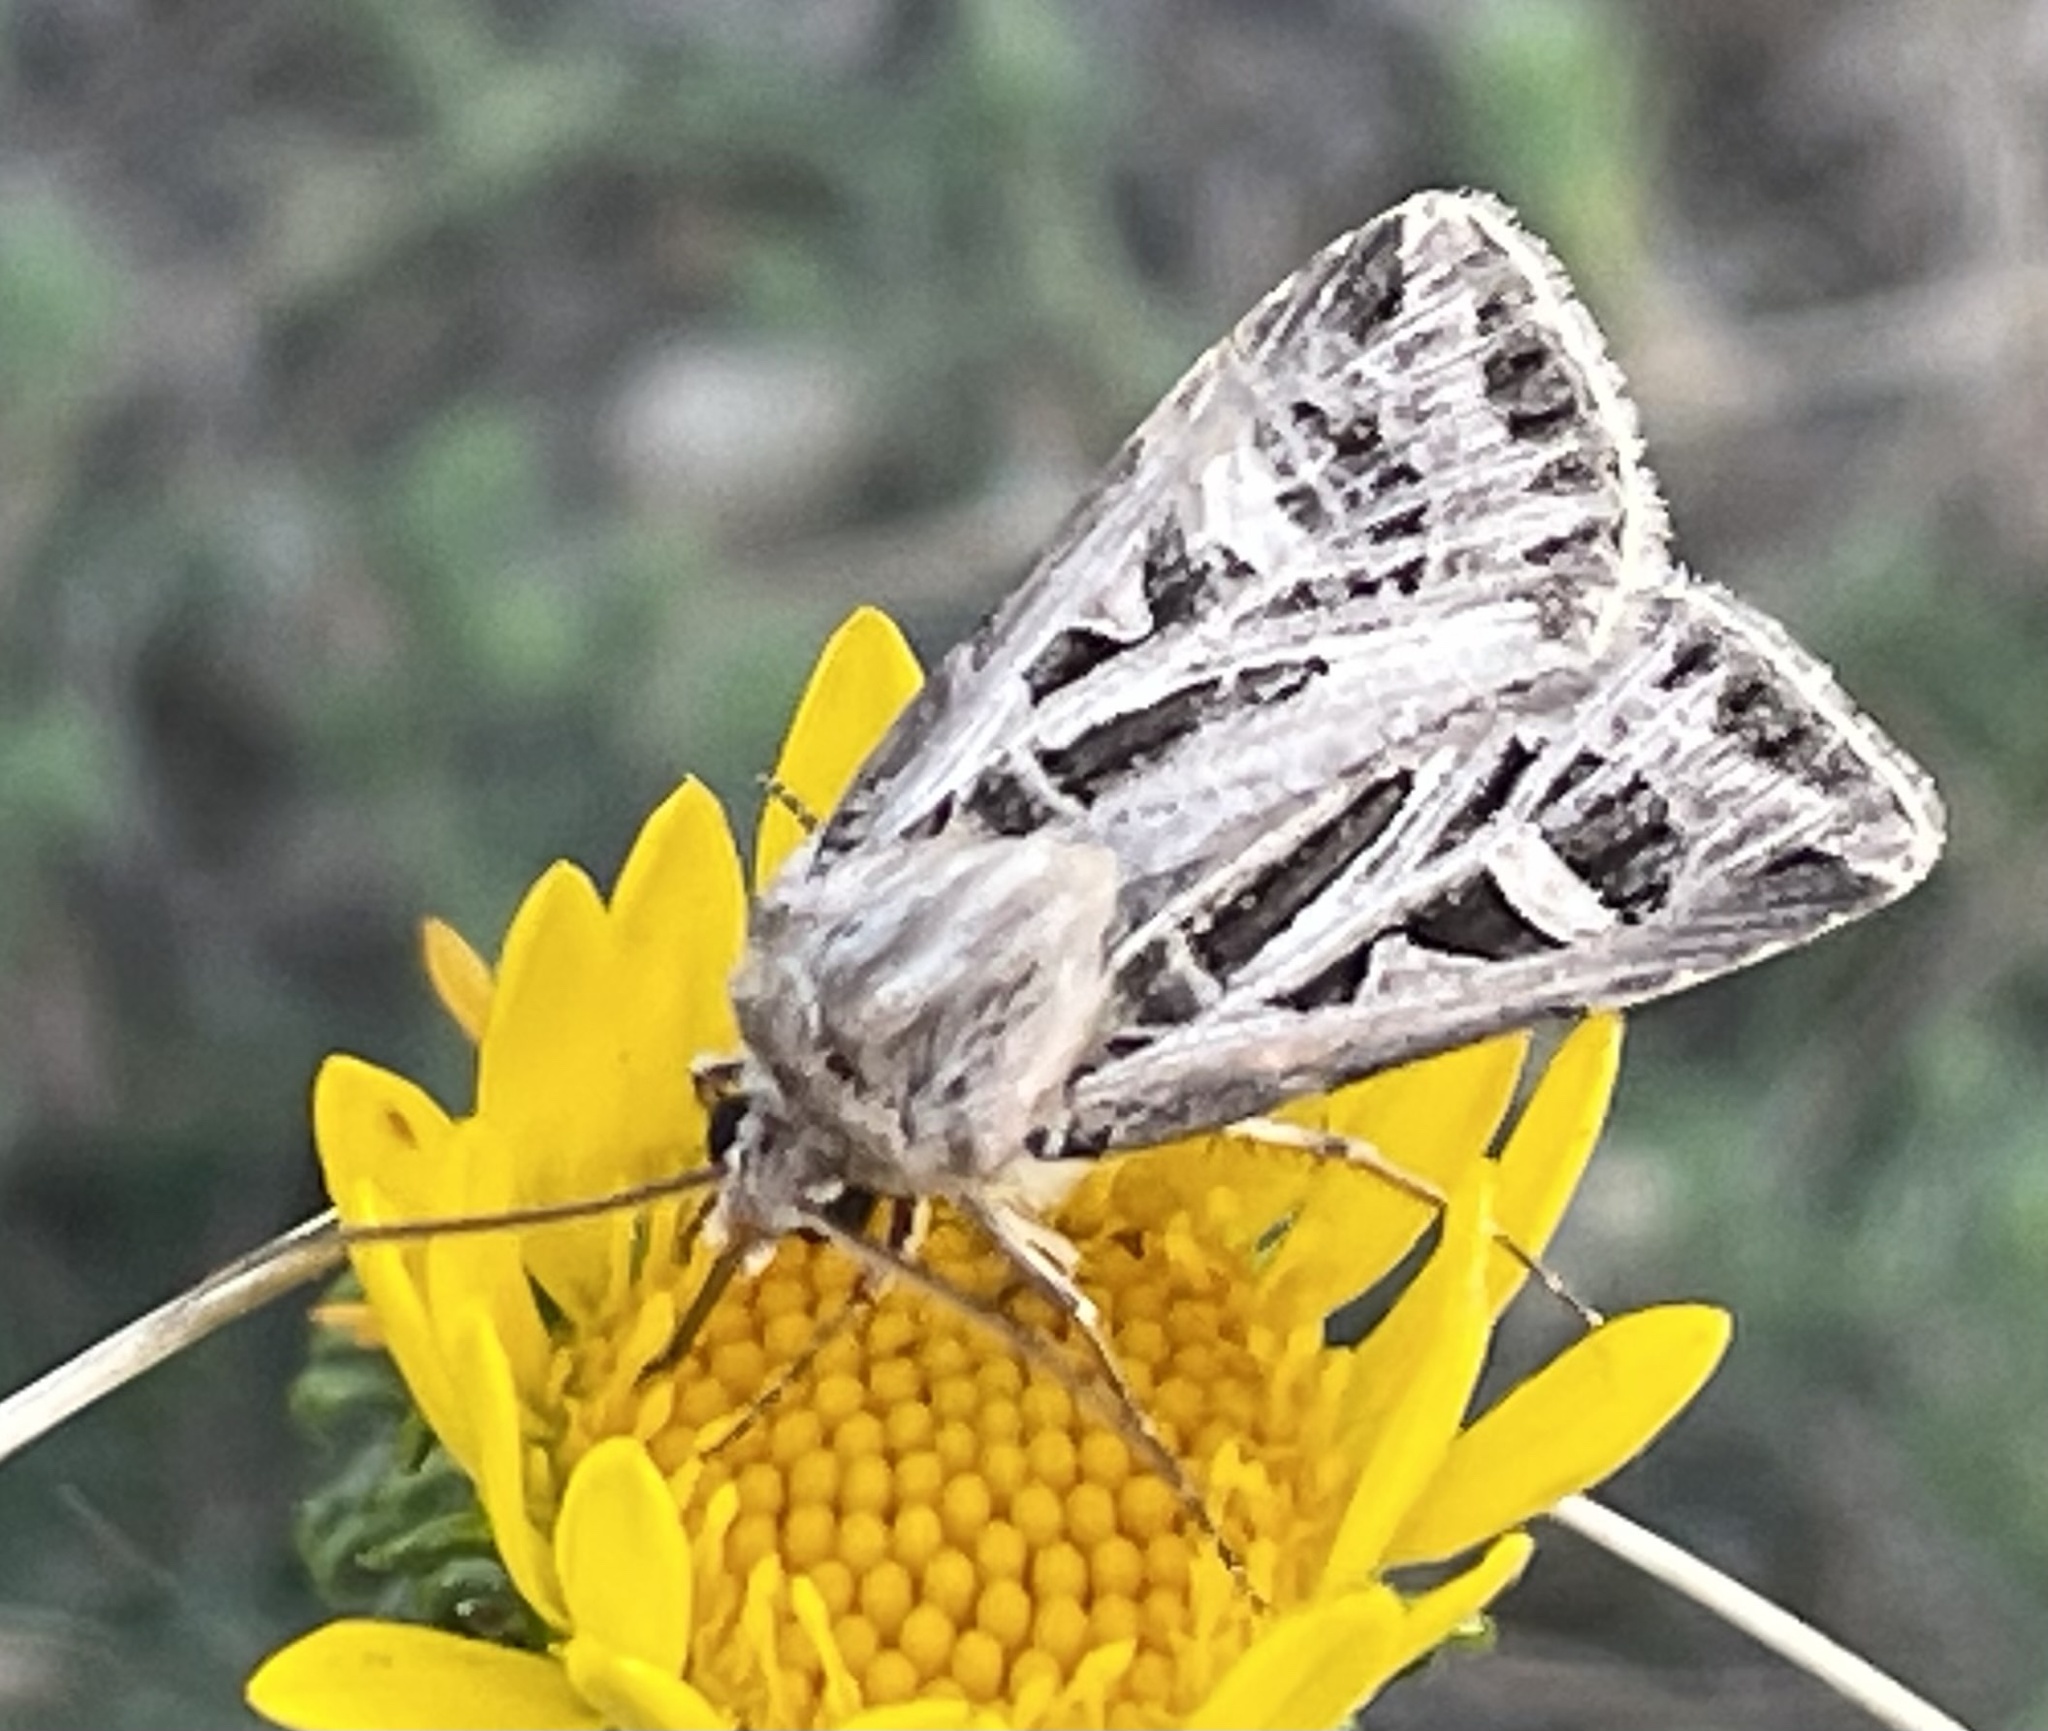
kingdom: Animalia
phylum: Arthropoda
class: Insecta
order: Lepidoptera
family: Noctuidae
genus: Feltia
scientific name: Feltia jaculifera
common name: Dingy cutworm moth
